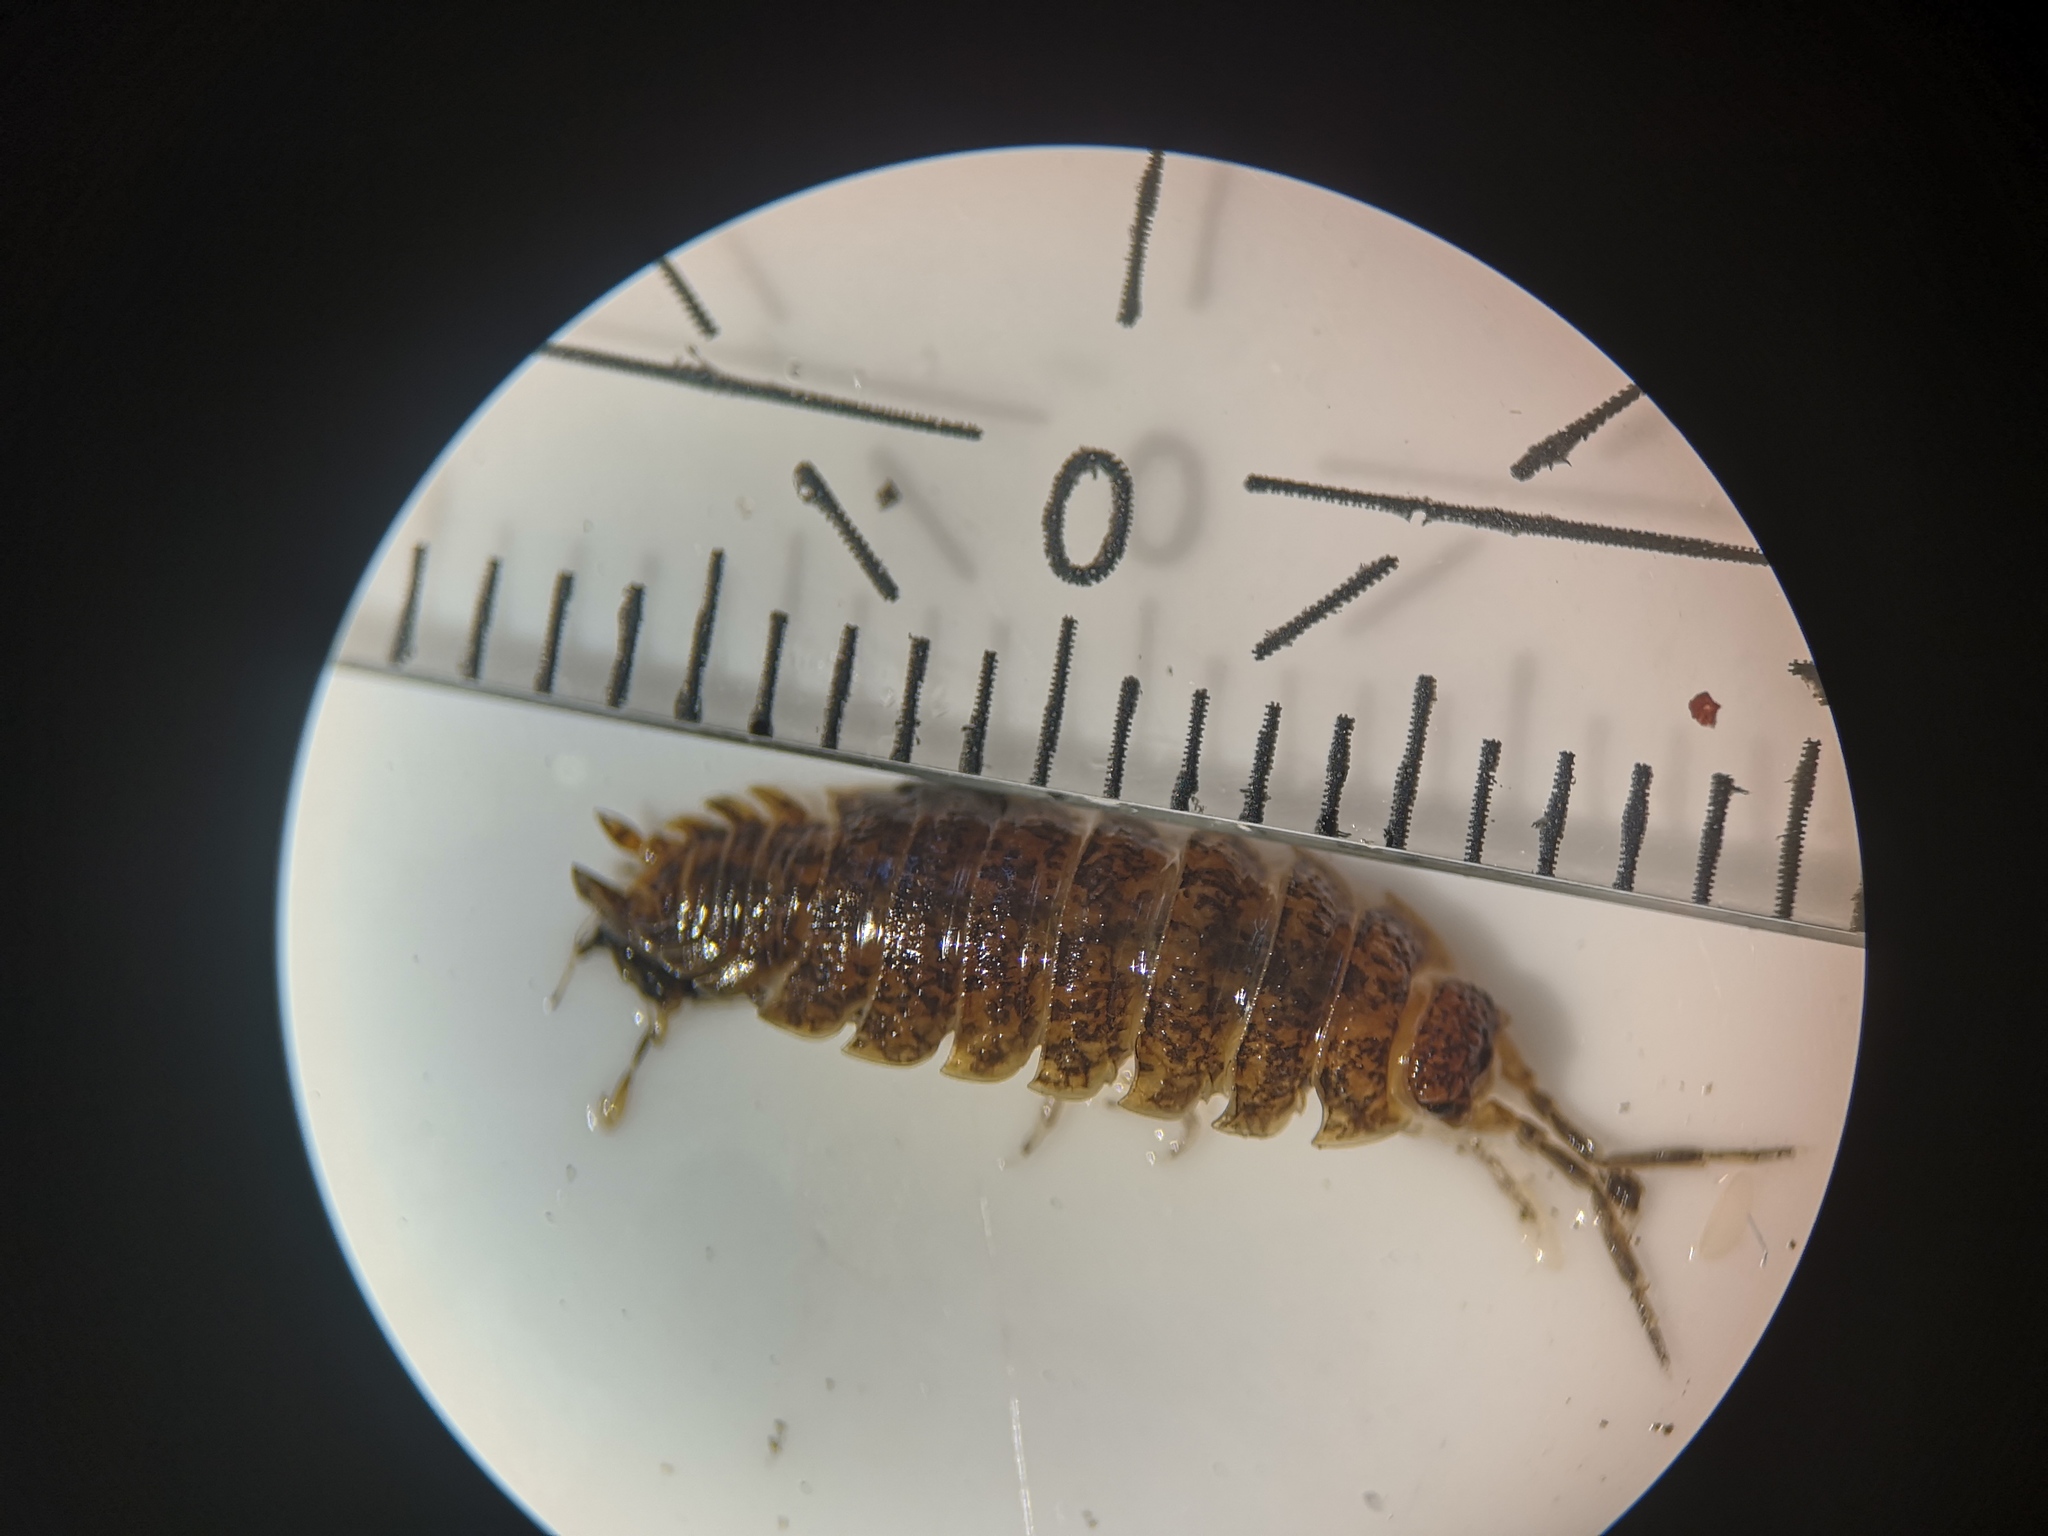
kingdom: Animalia
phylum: Arthropoda
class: Malacostraca
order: Isopoda
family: Porcellionidae
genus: Porcellio
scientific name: Porcellio scaber
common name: Common rough woodlouse
